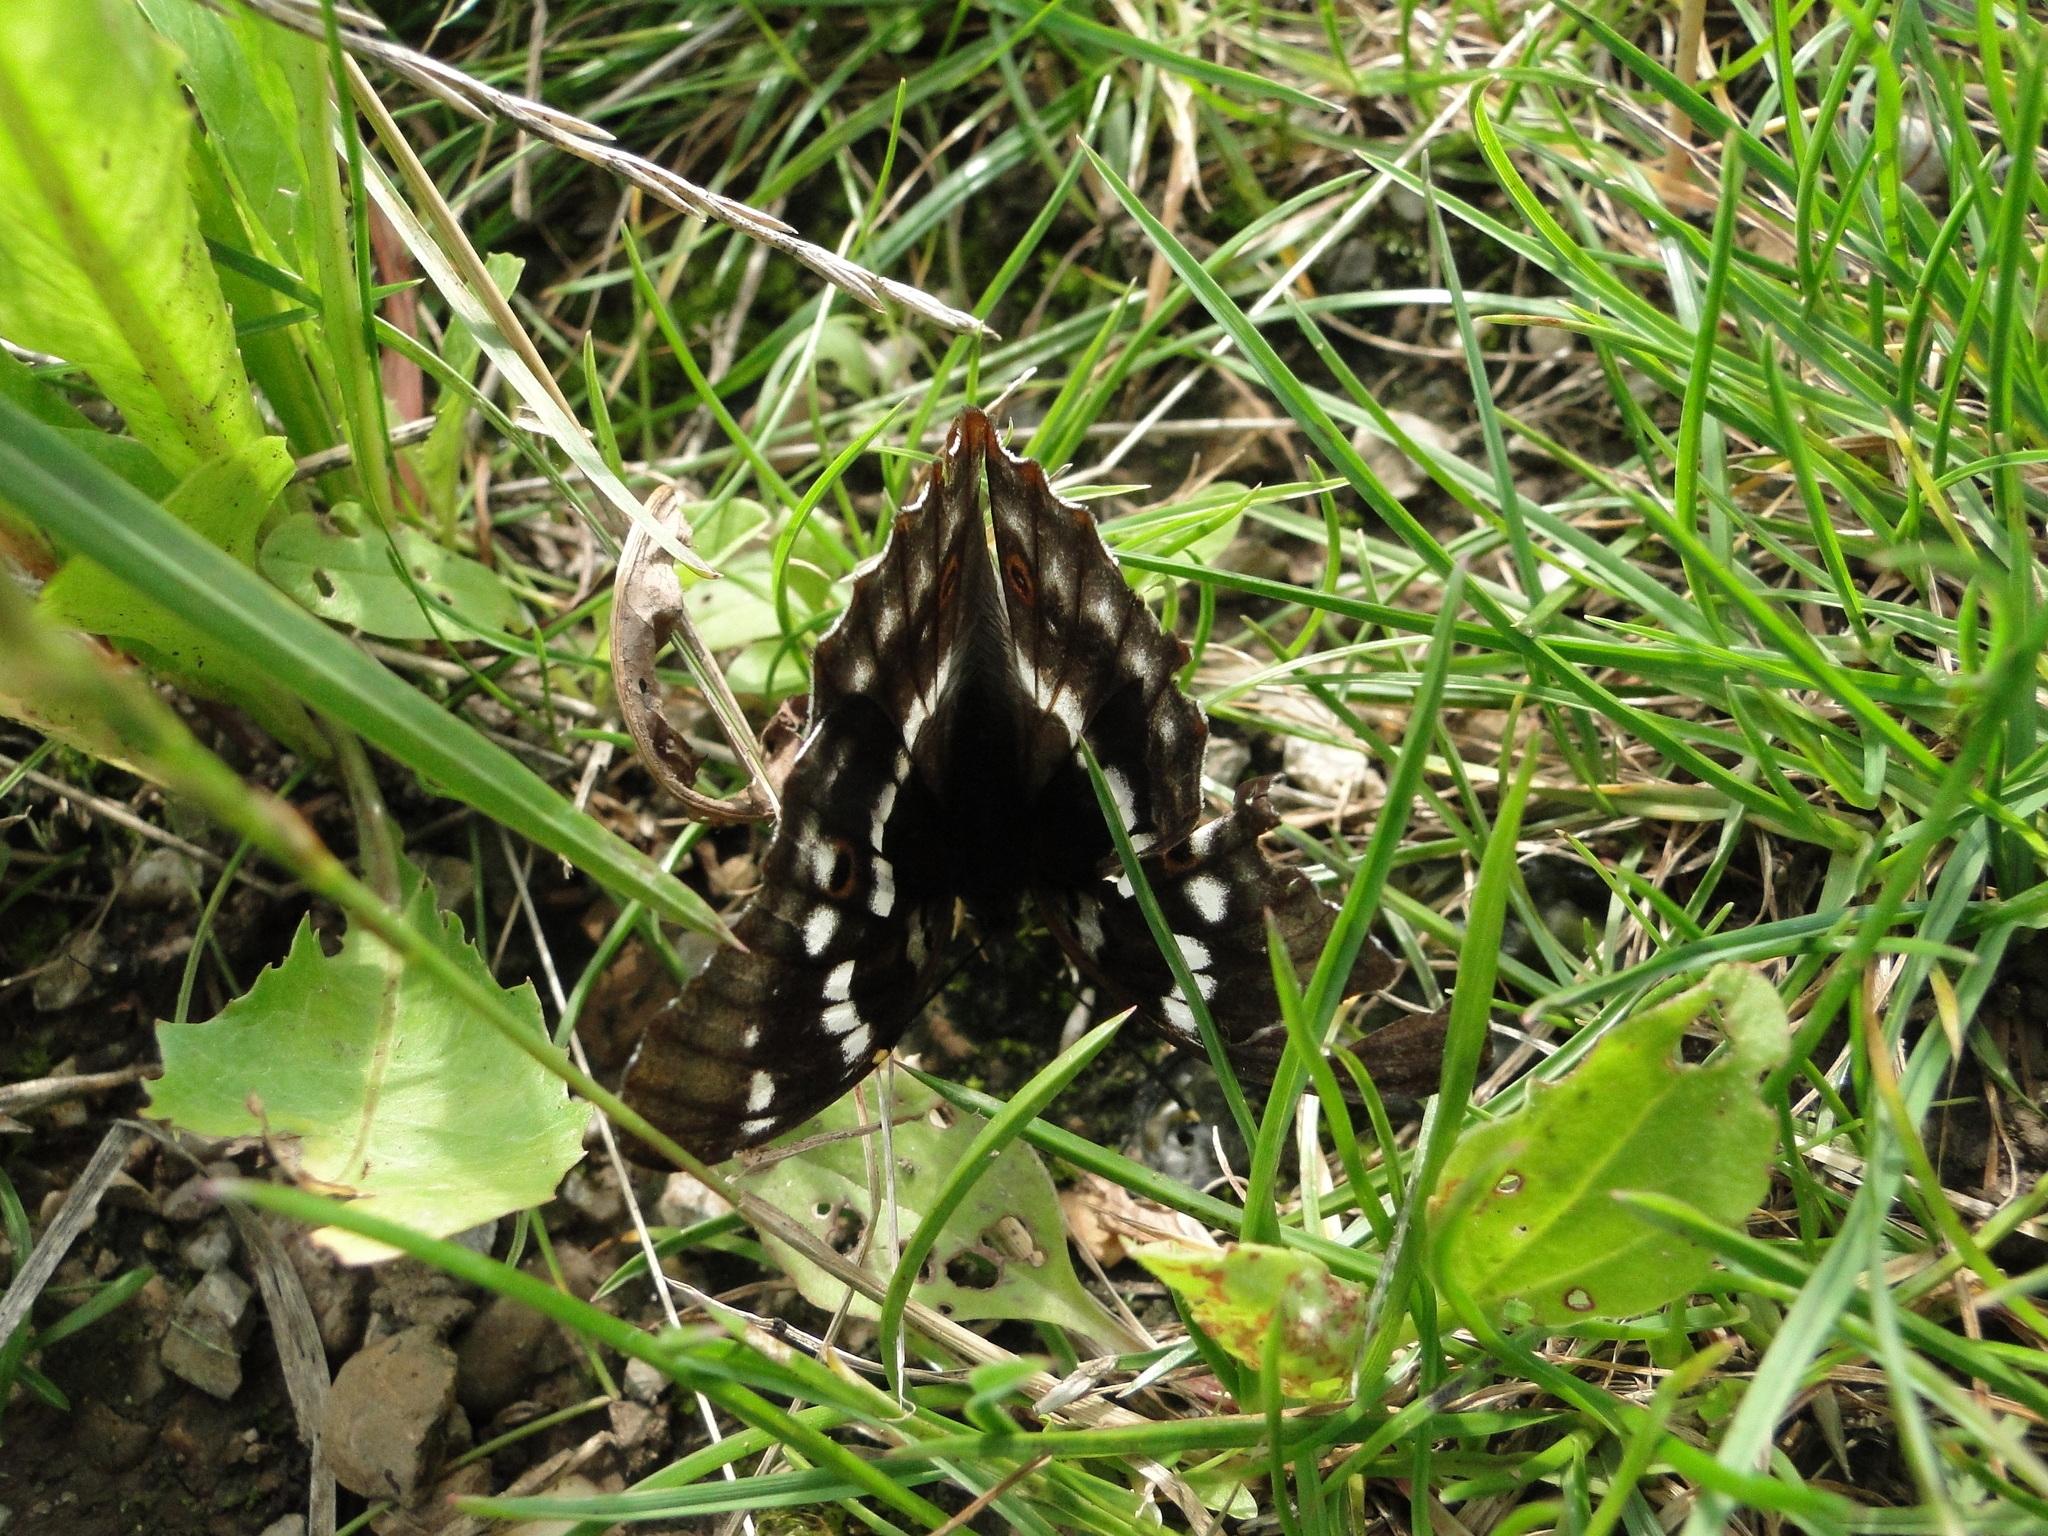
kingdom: Animalia
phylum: Arthropoda
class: Insecta
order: Lepidoptera
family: Nymphalidae
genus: Apatura
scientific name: Apatura ilia
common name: Lesser purple emperor
